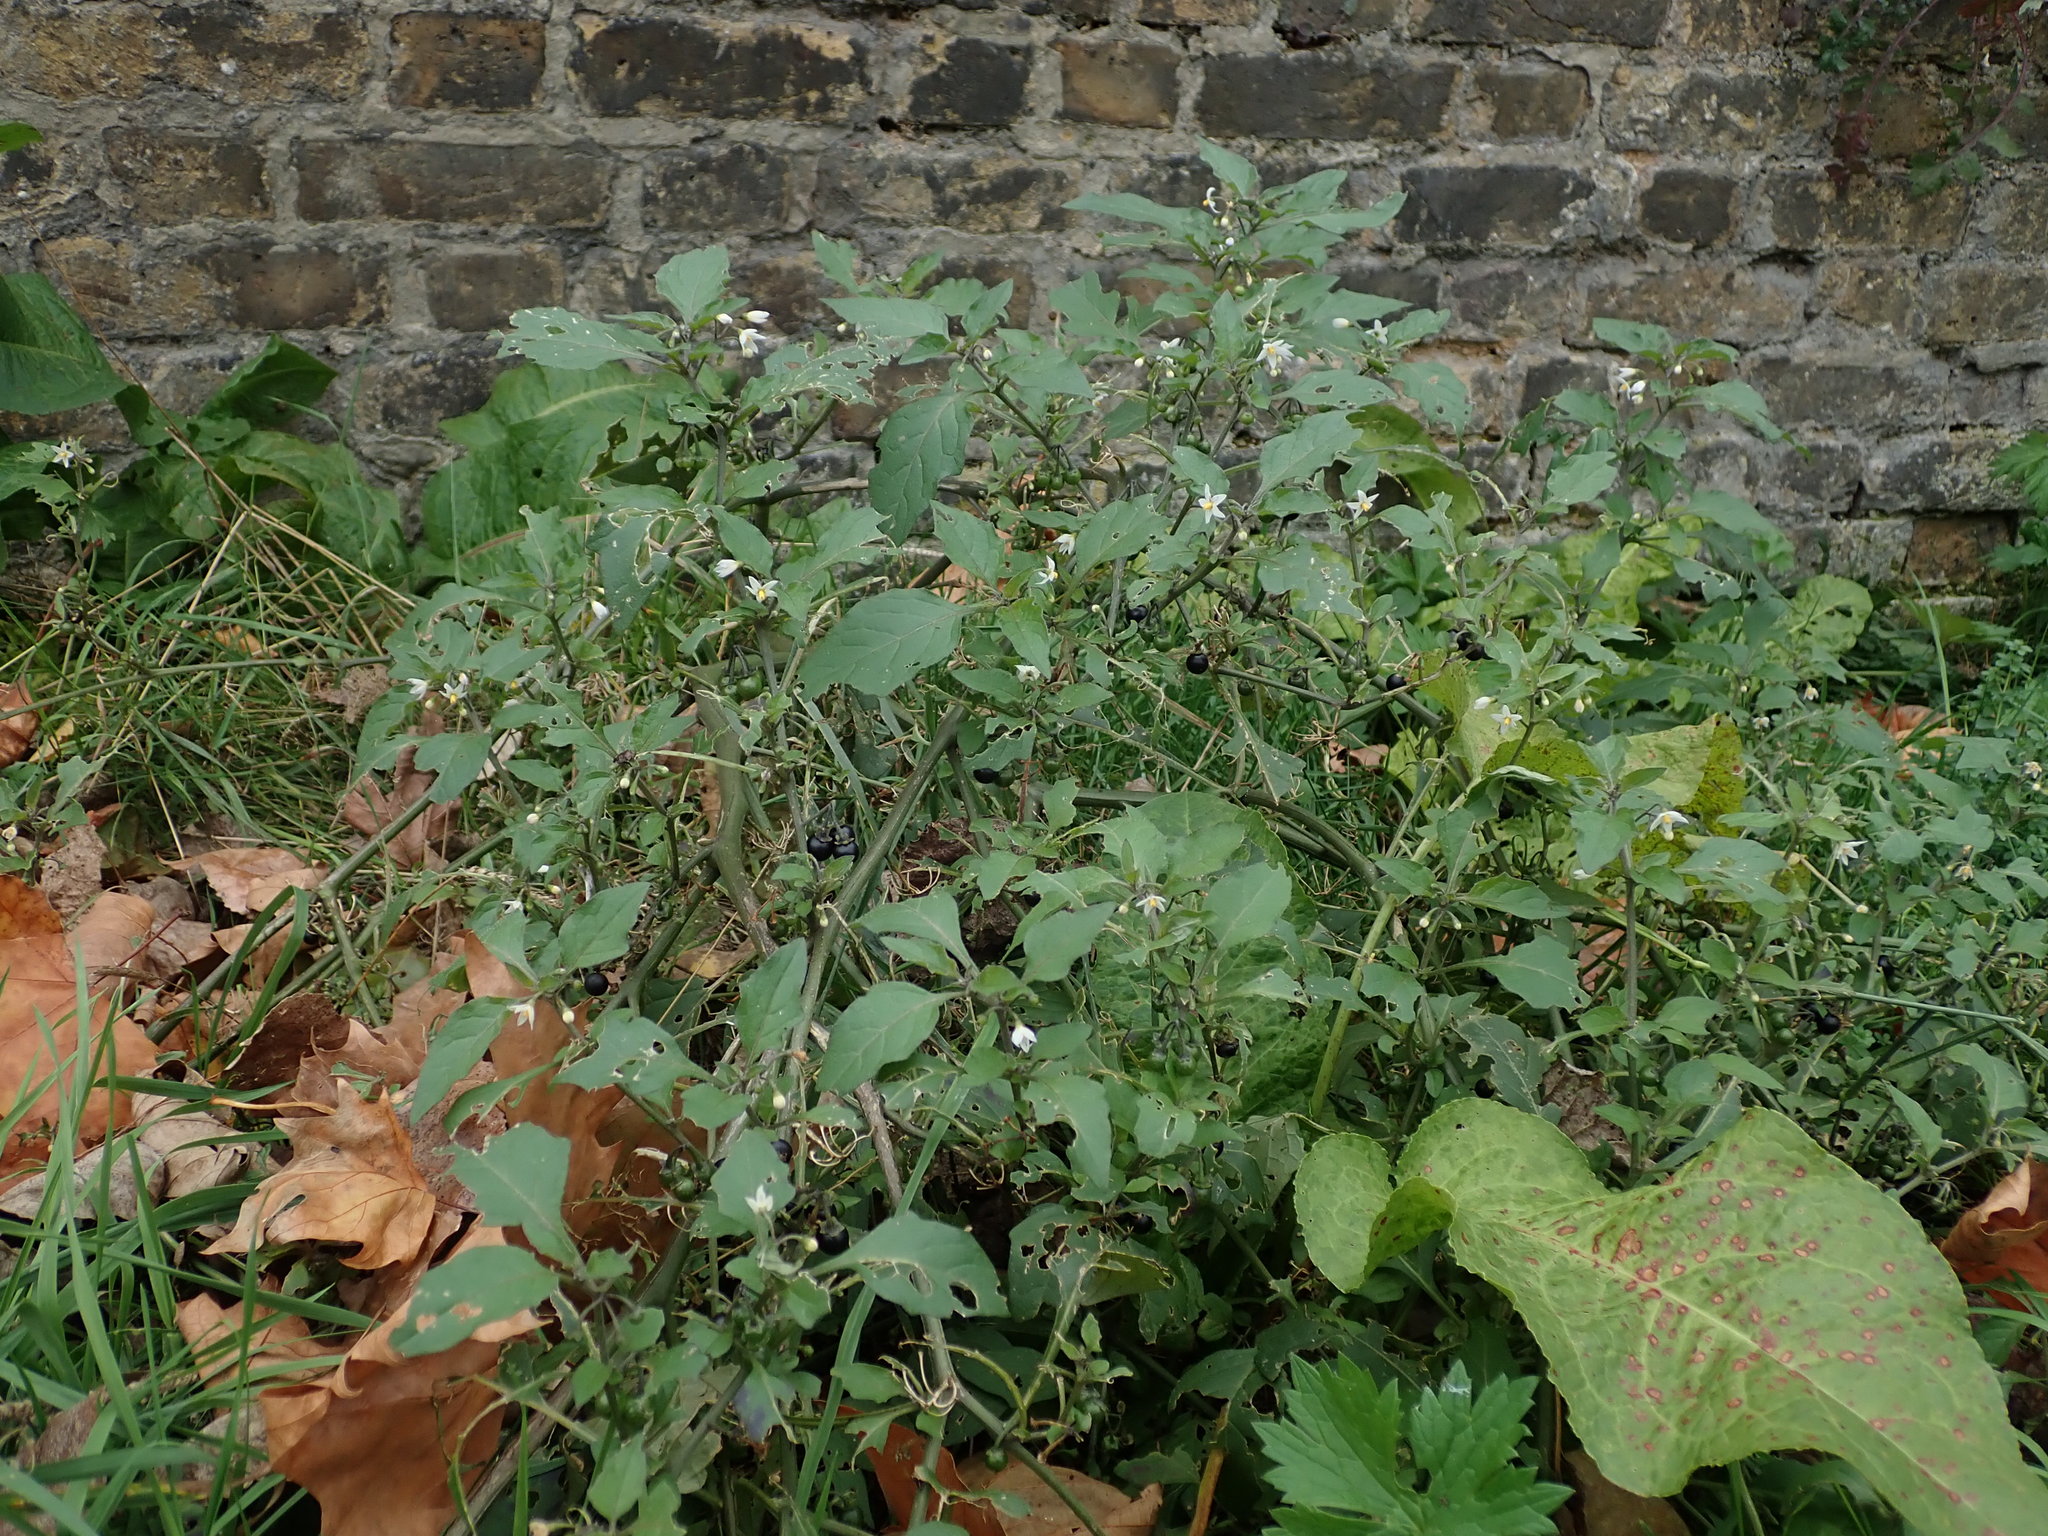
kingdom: Plantae
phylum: Tracheophyta
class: Magnoliopsida
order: Solanales
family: Solanaceae
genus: Solanum
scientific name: Solanum nigrum
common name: Black nightshade
